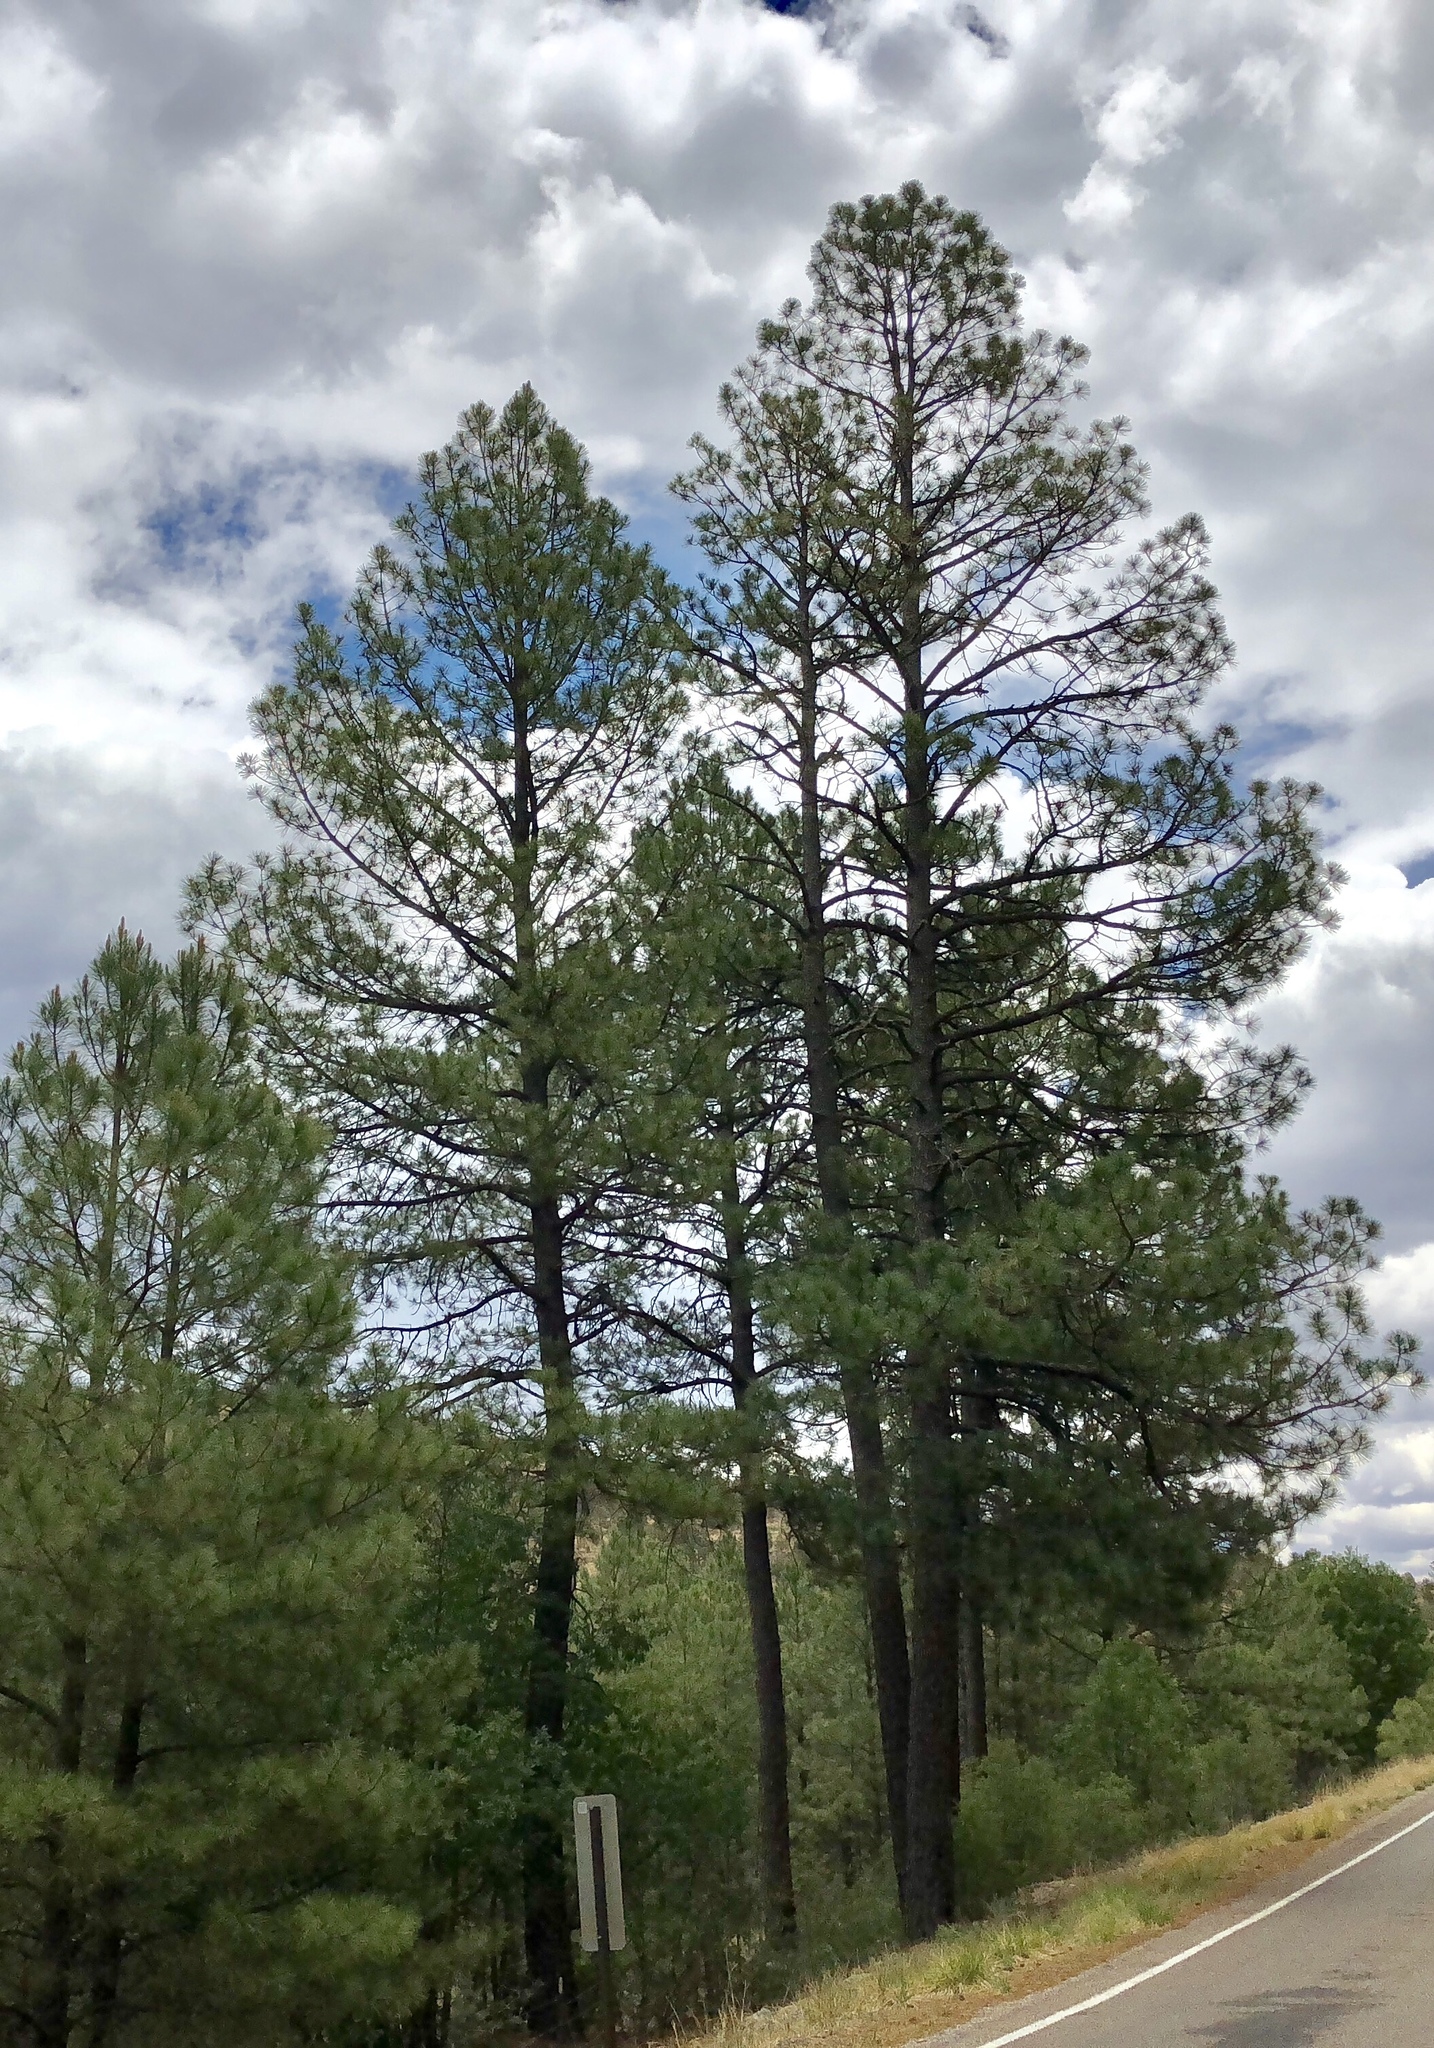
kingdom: Plantae
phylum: Tracheophyta
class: Pinopsida
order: Pinales
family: Pinaceae
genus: Pinus
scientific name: Pinus ponderosa
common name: Western yellow-pine
